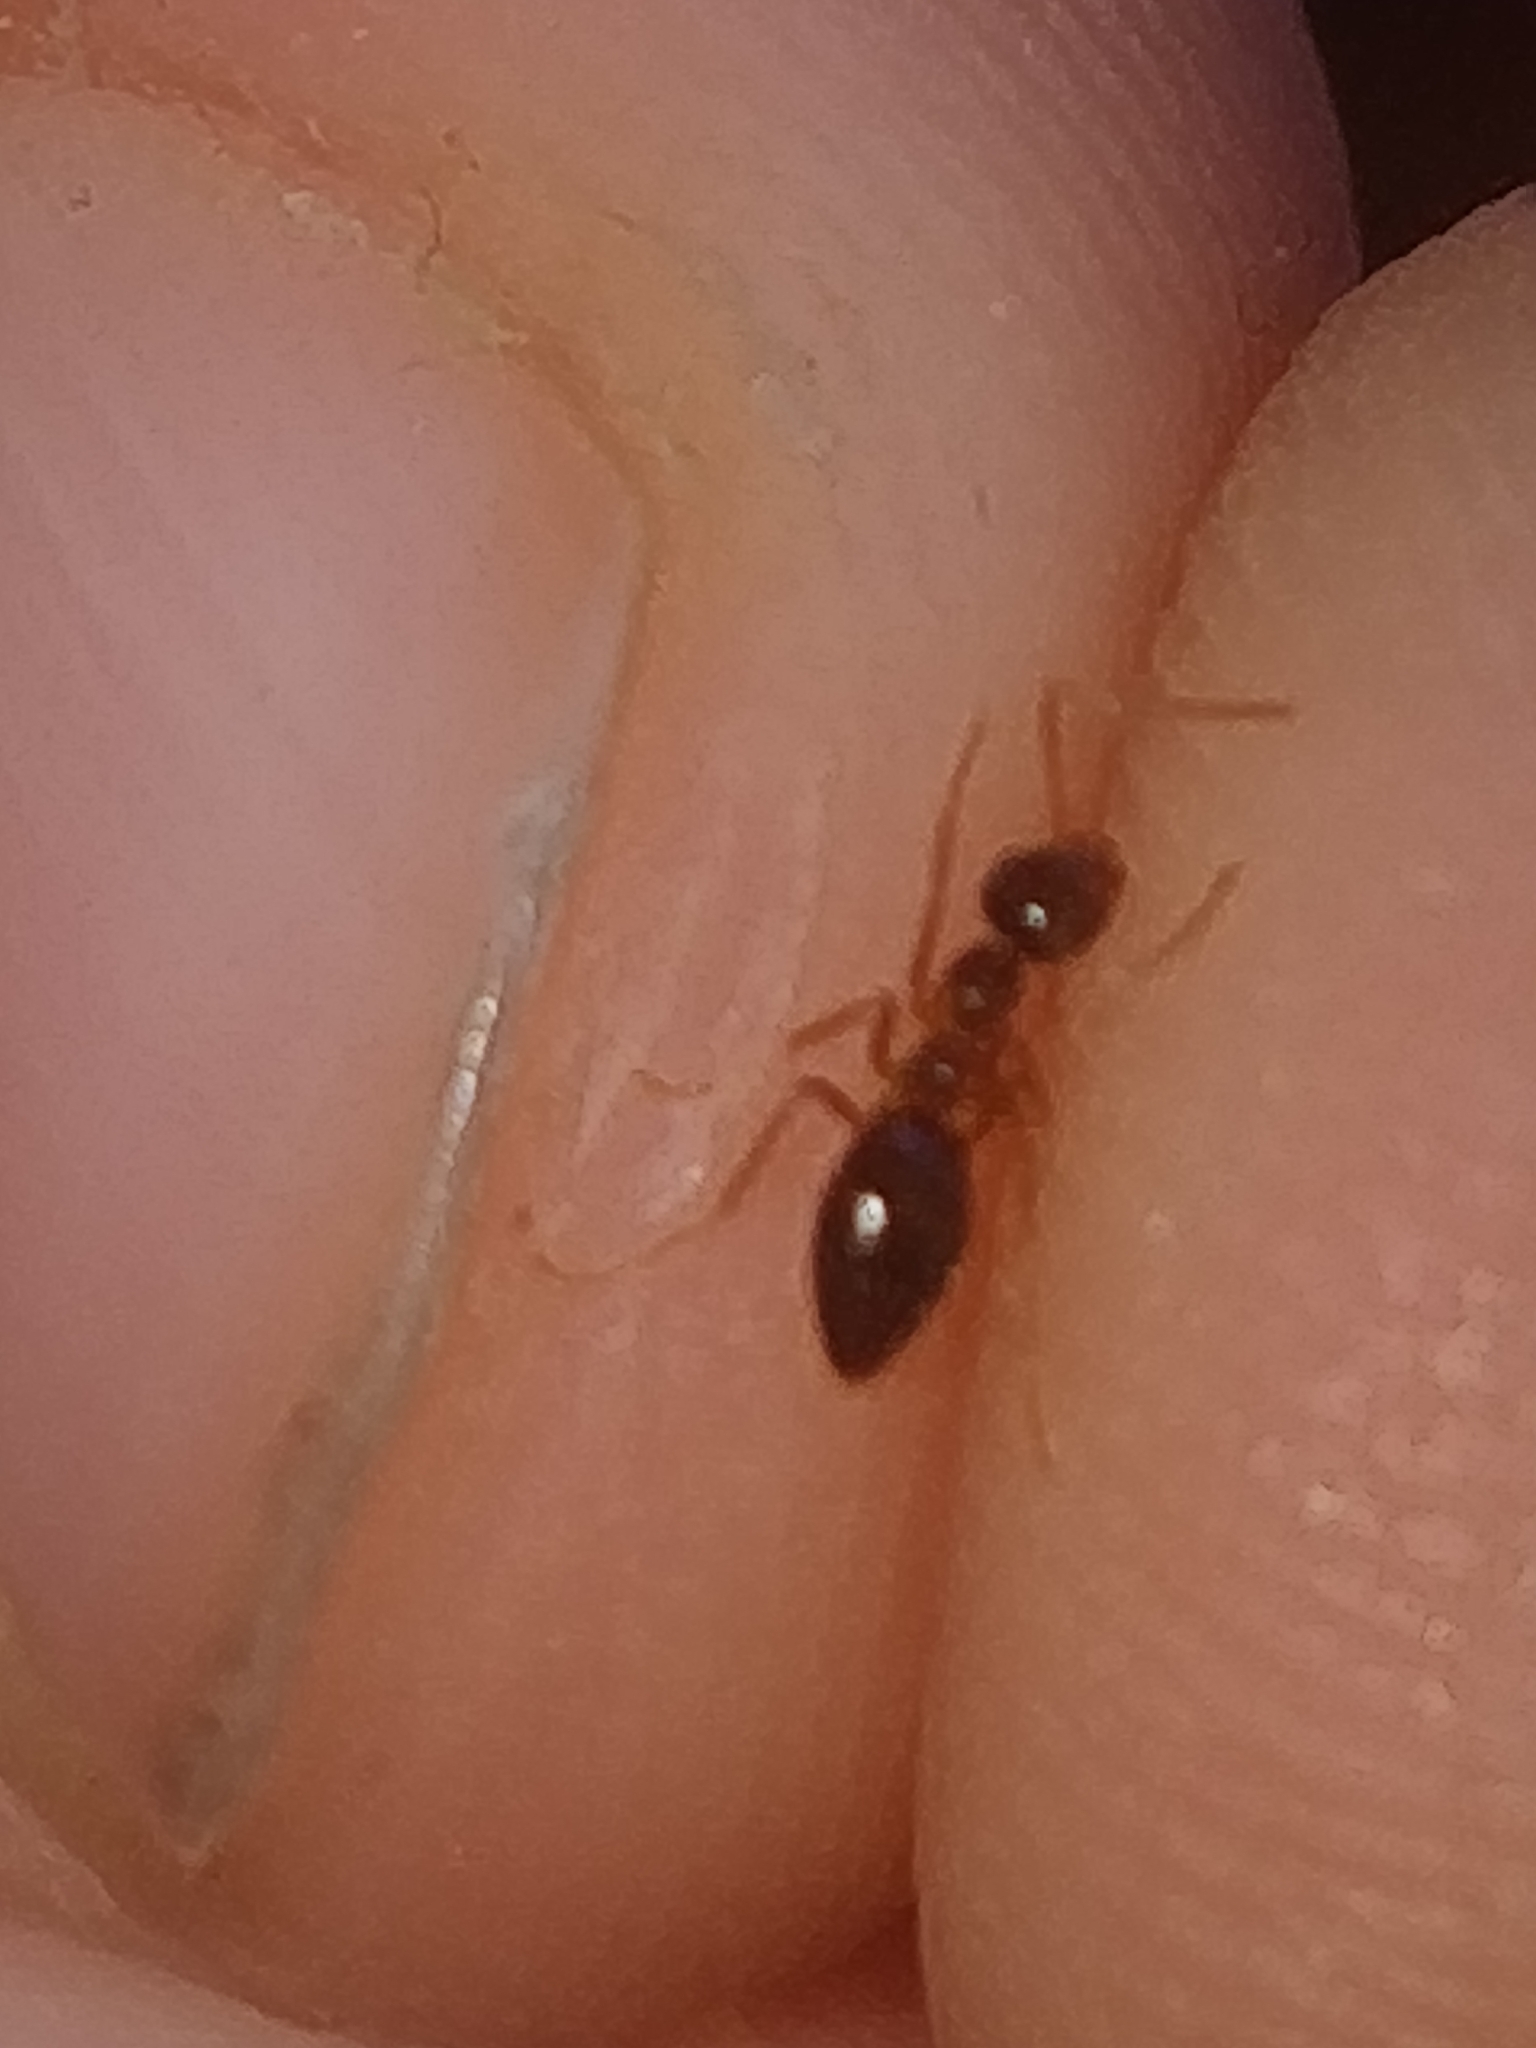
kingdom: Animalia
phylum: Arthropoda
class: Insecta
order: Hymenoptera
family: Formicidae
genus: Prenolepis
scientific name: Prenolepis imparis
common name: Small honey ant
